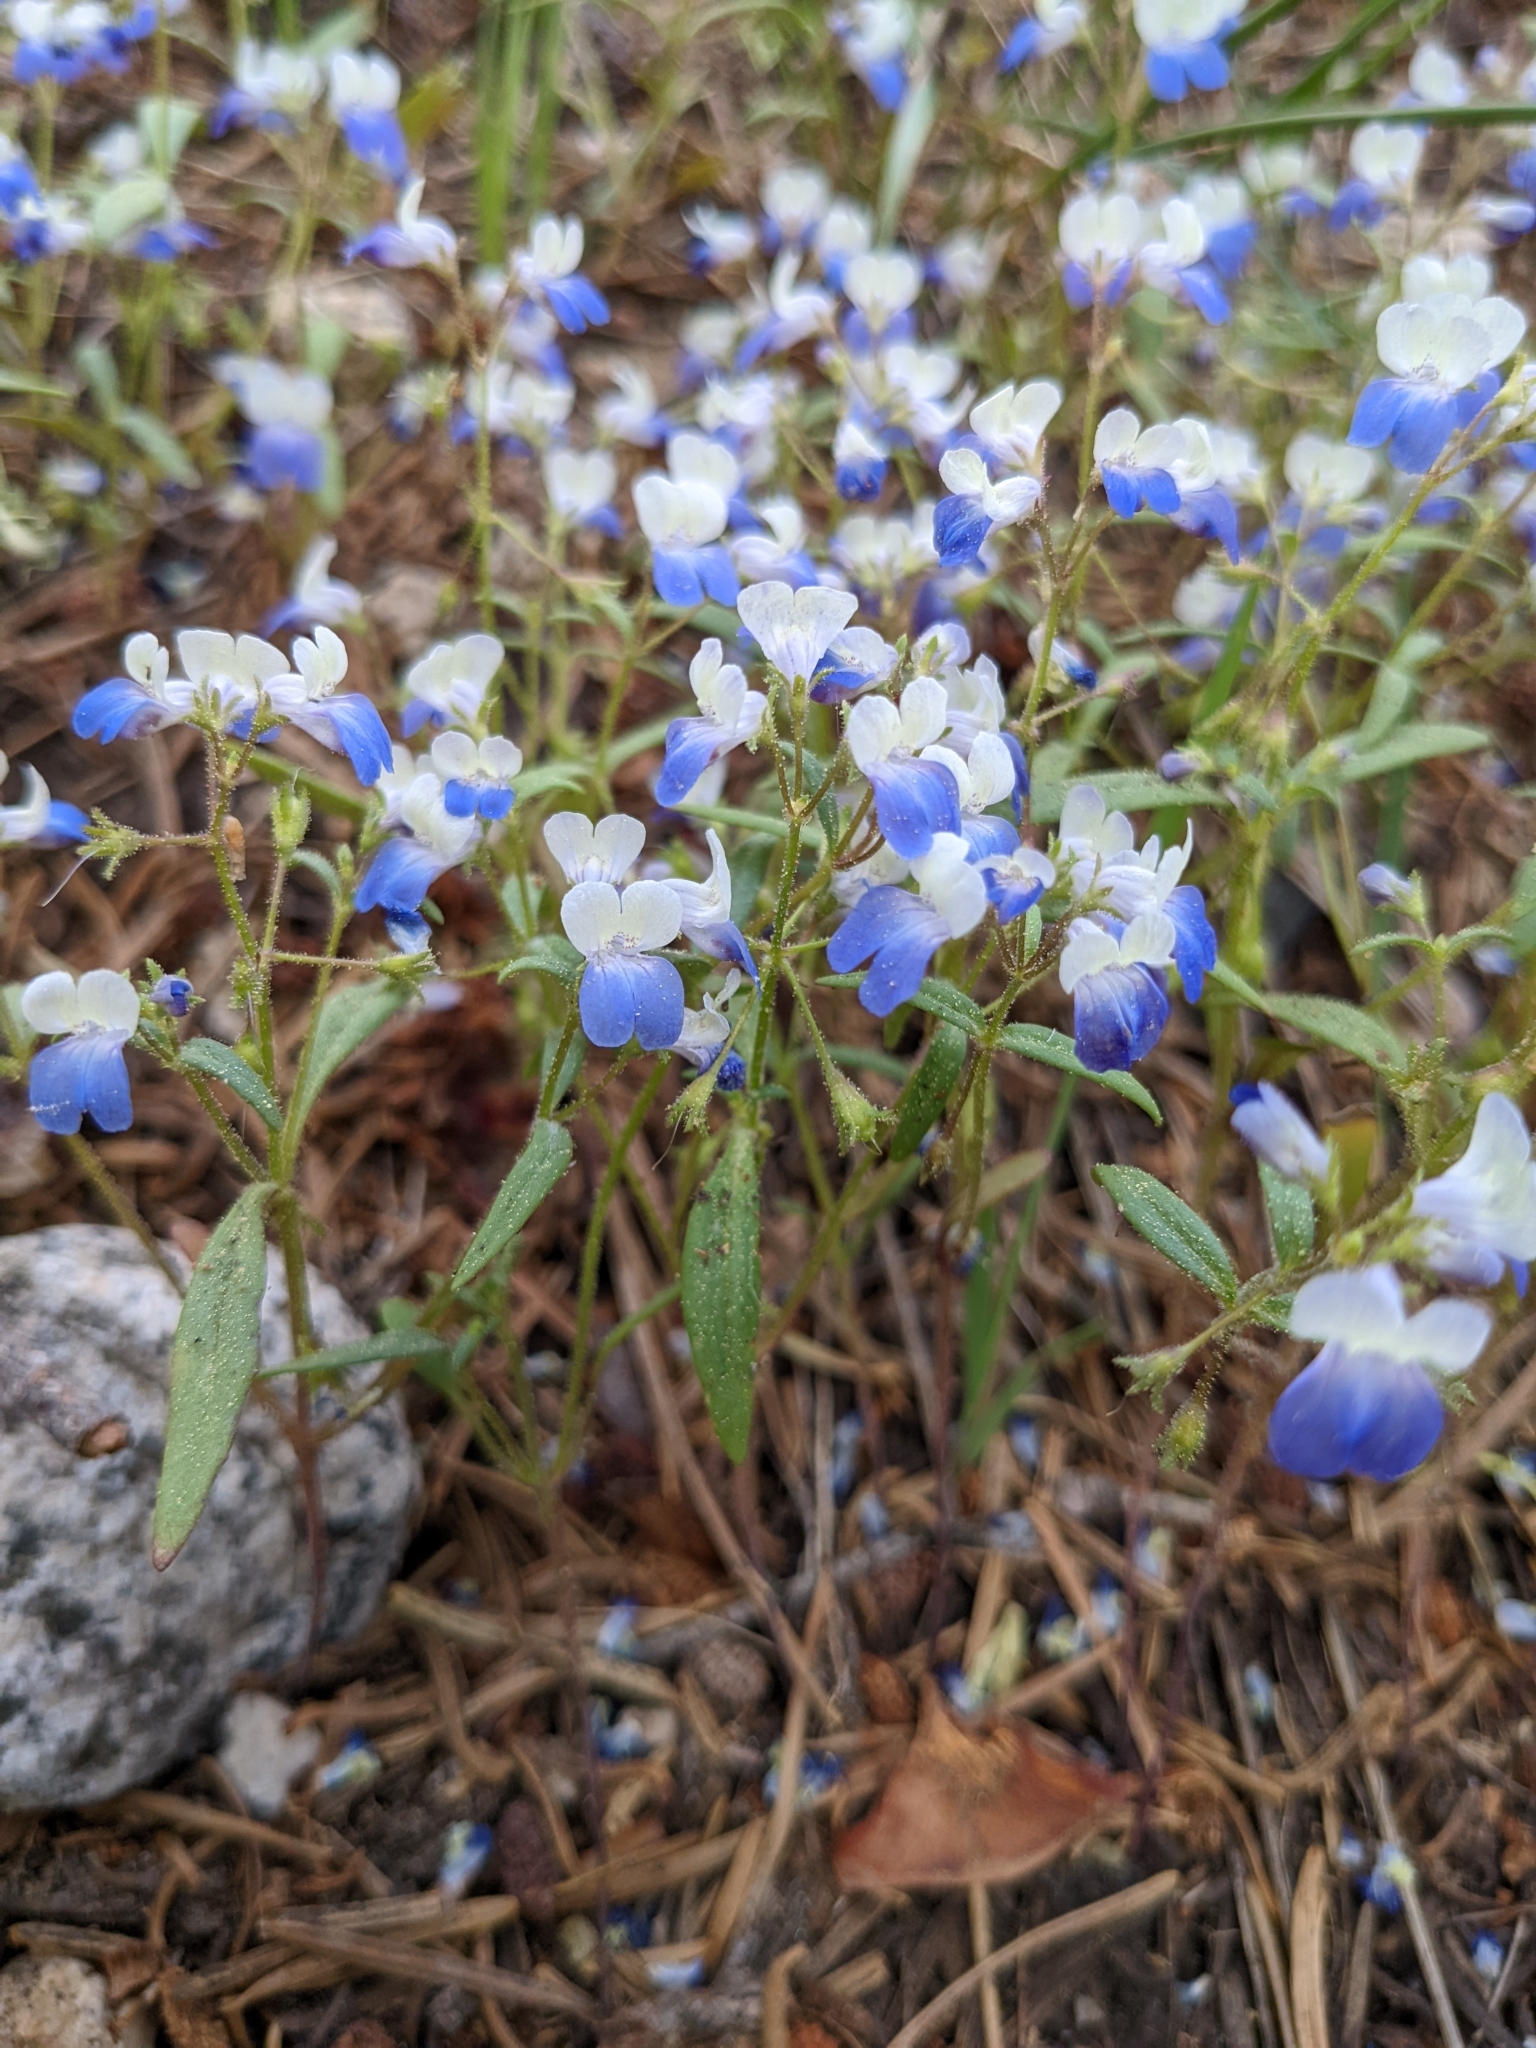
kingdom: Plantae
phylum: Tracheophyta
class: Magnoliopsida
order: Lamiales
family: Plantaginaceae
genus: Collinsia
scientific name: Collinsia torreyi
